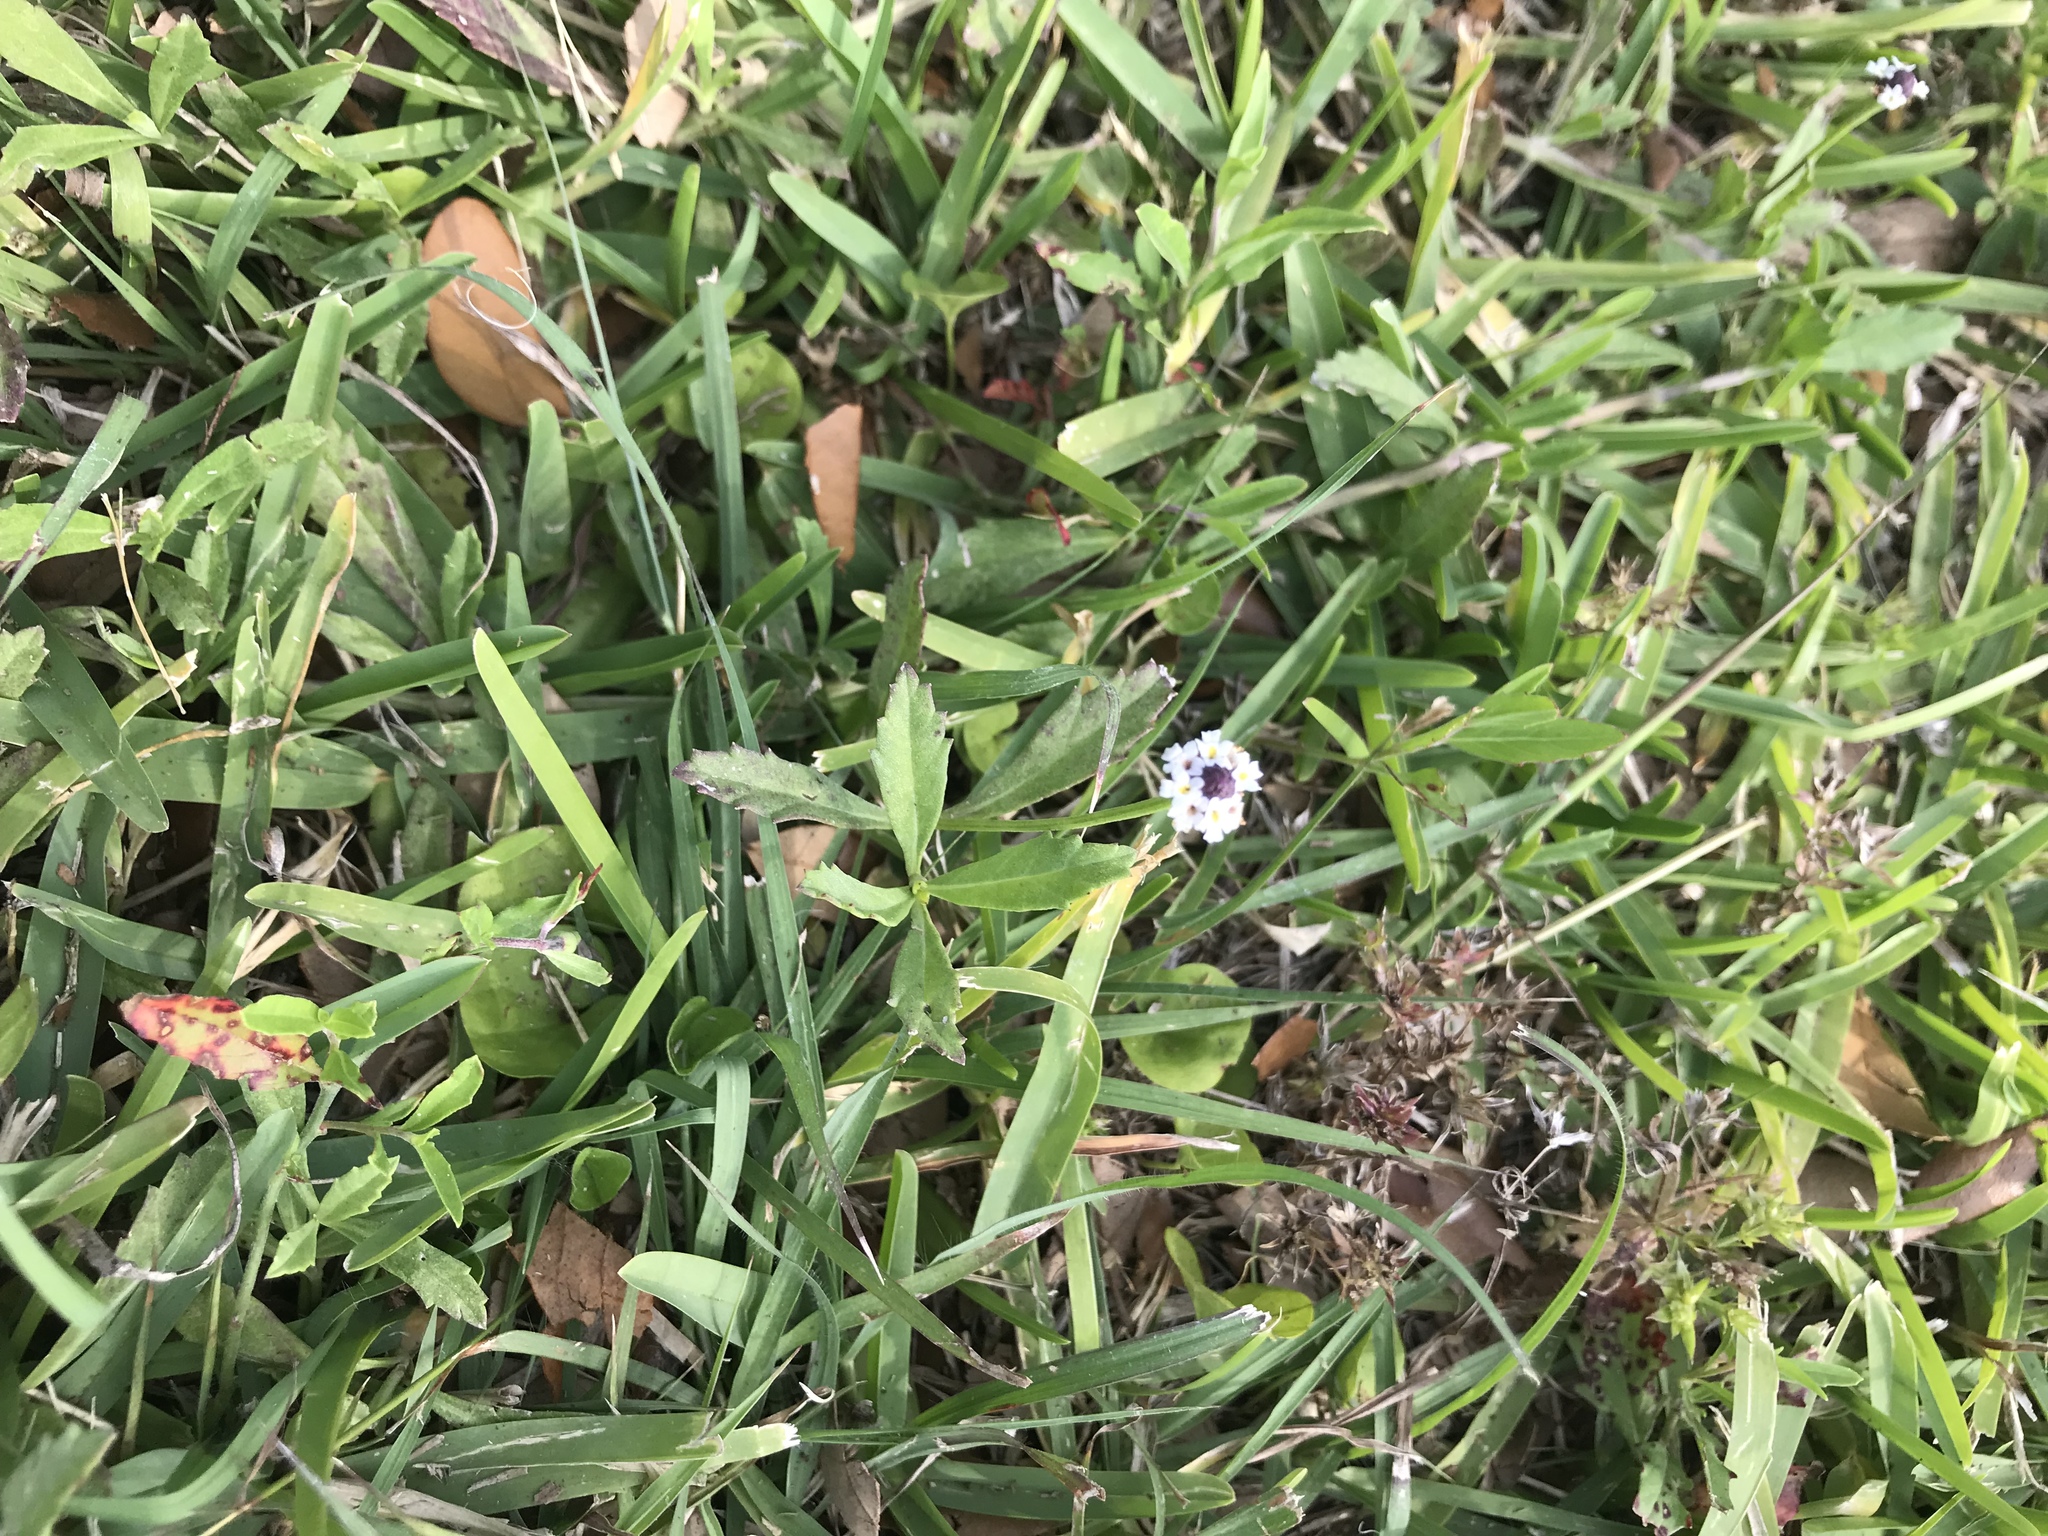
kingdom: Plantae
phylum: Tracheophyta
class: Magnoliopsida
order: Lamiales
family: Verbenaceae
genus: Phyla
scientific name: Phyla nodiflora
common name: Frogfruit
